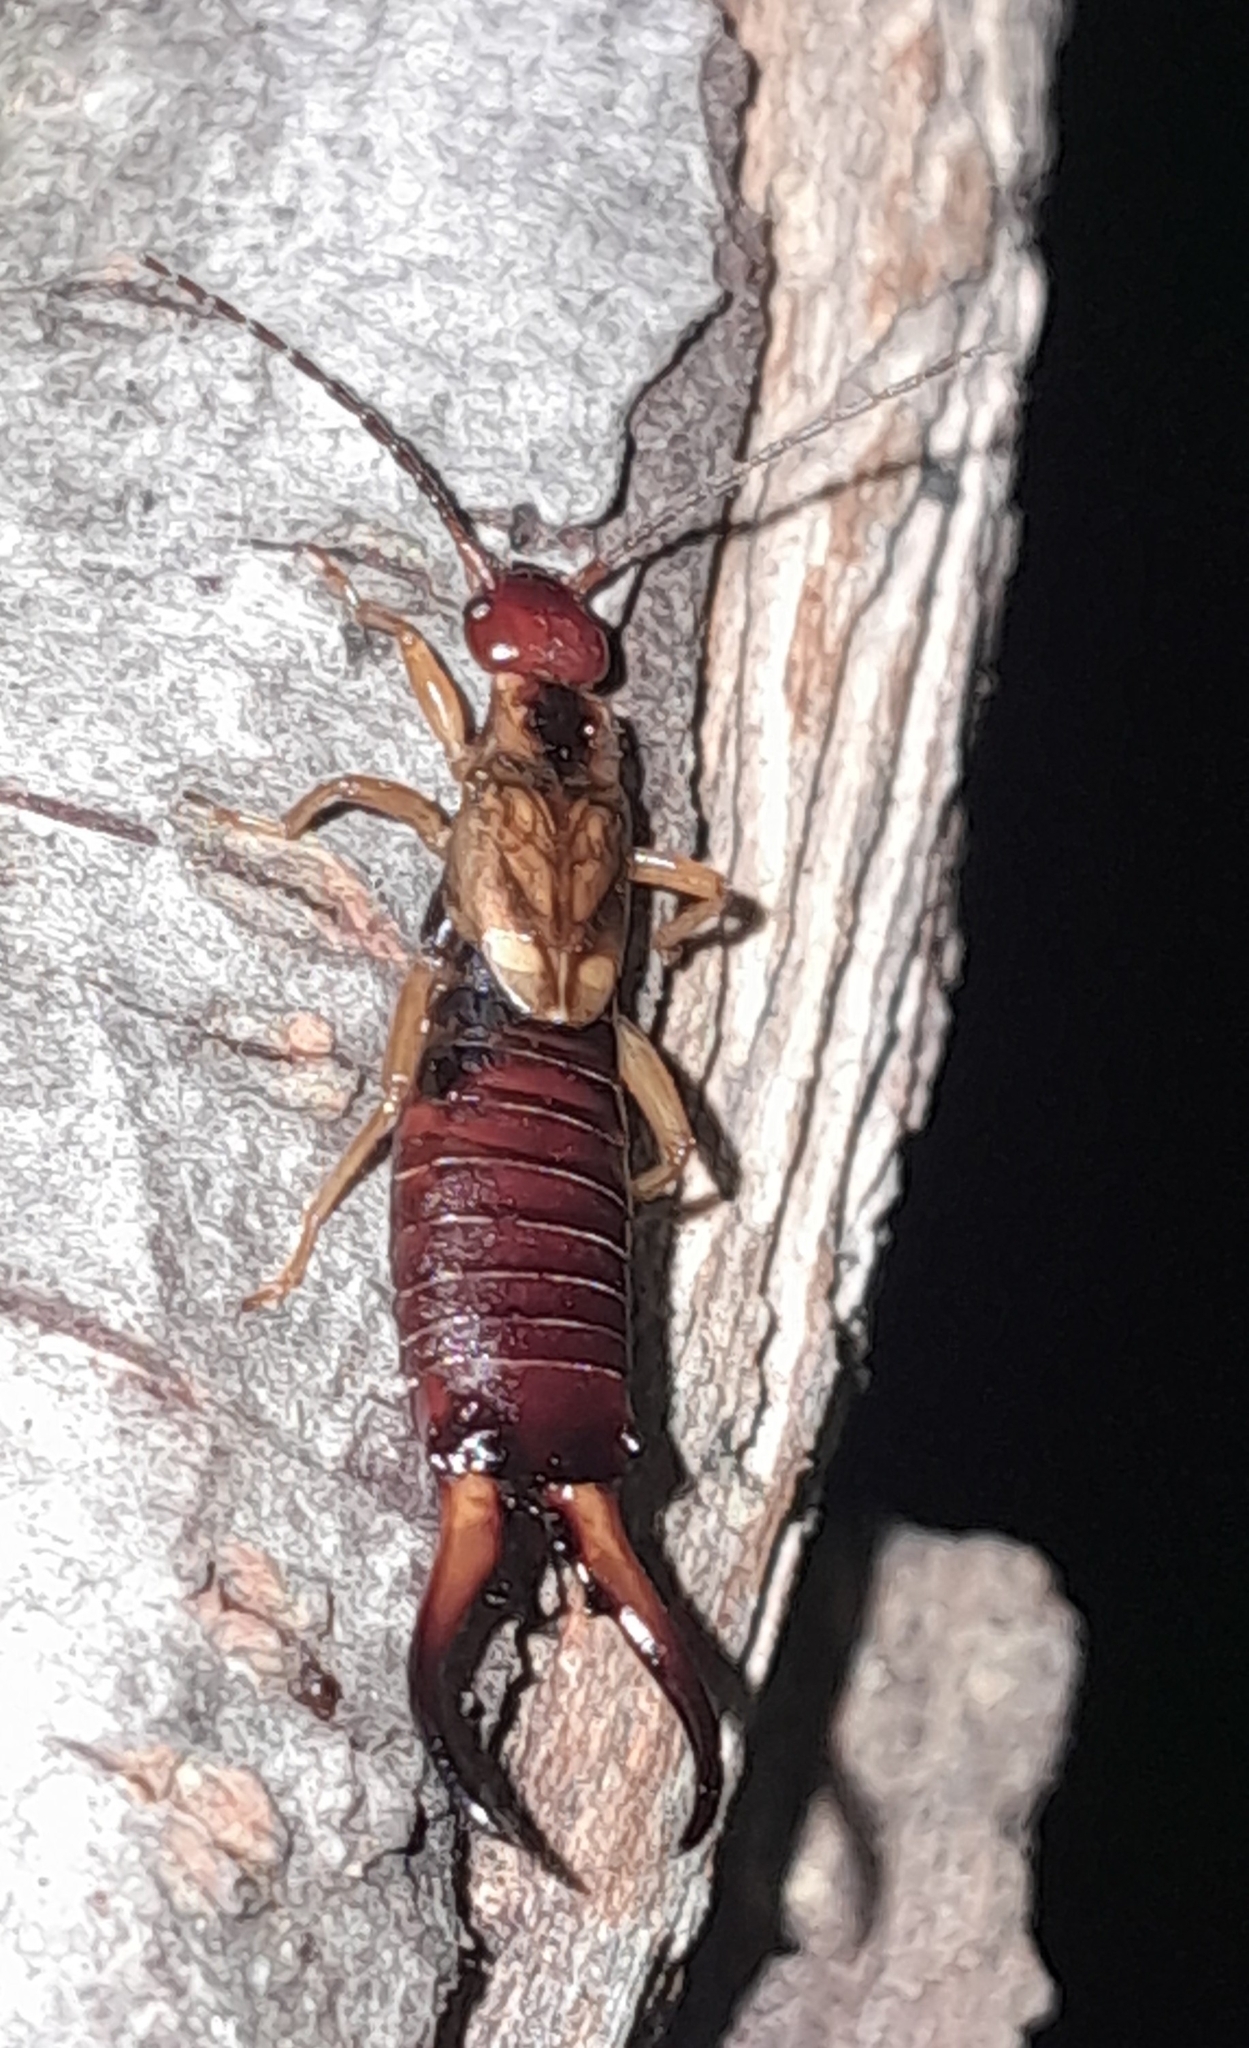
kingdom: Animalia
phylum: Arthropoda
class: Insecta
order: Dermaptera
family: Forficulidae
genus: Forficula
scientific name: Forficula auricularia
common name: European earwig
